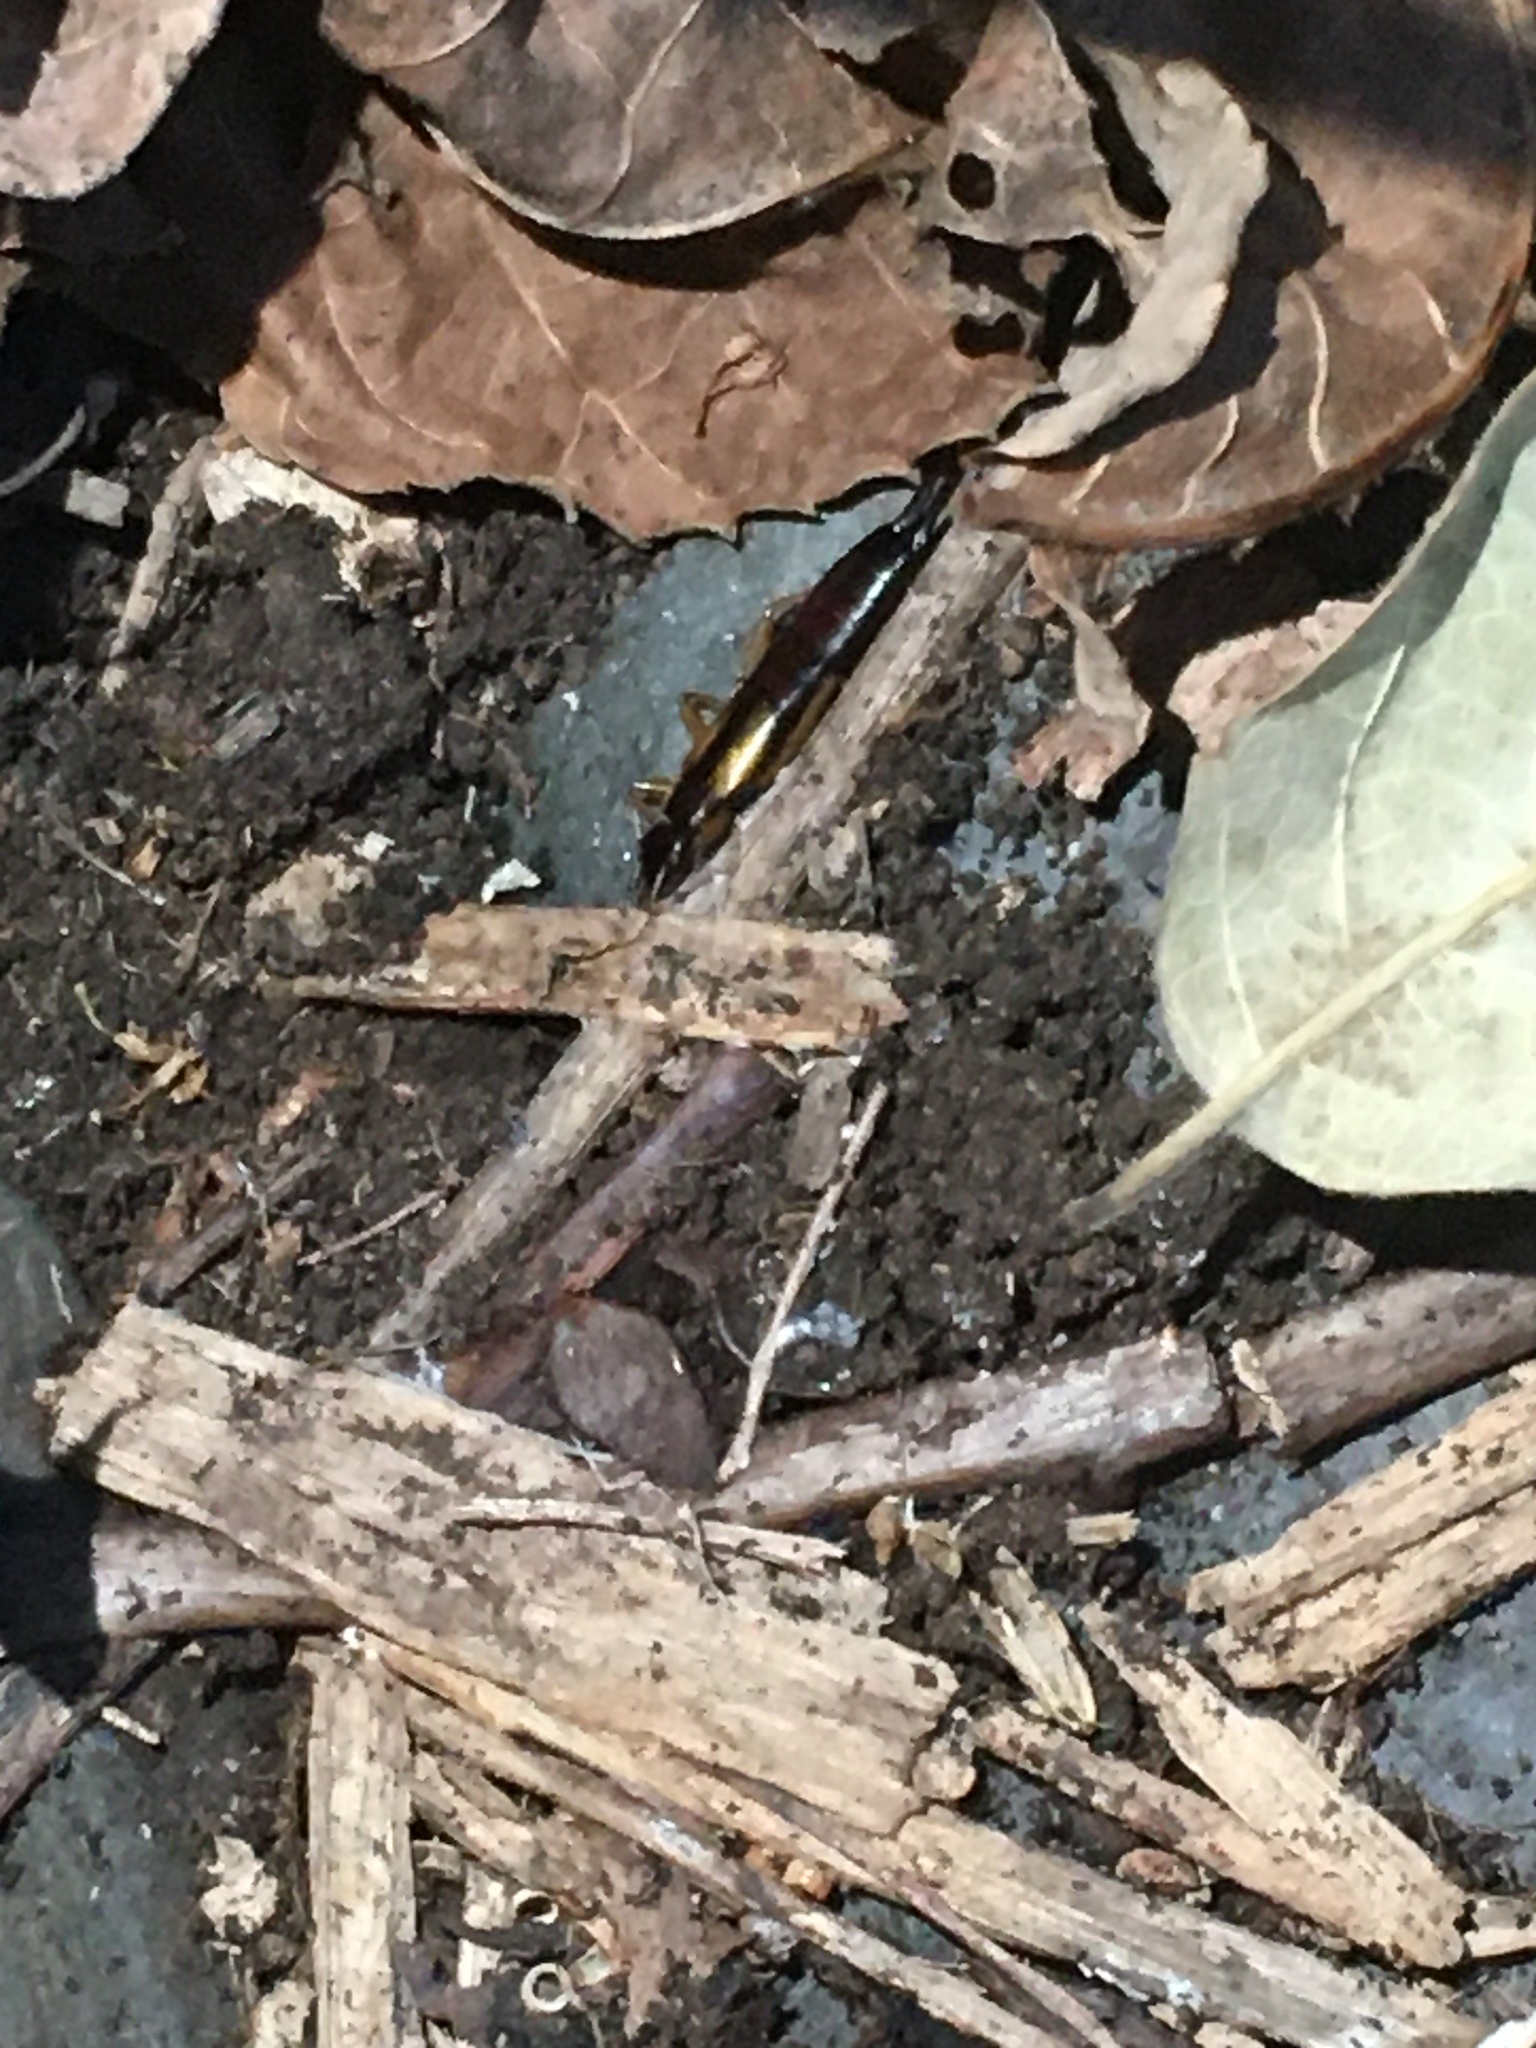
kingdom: Animalia
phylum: Arthropoda
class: Insecta
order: Dermaptera
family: Forficulidae
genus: Doru
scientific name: Doru aculeatum
